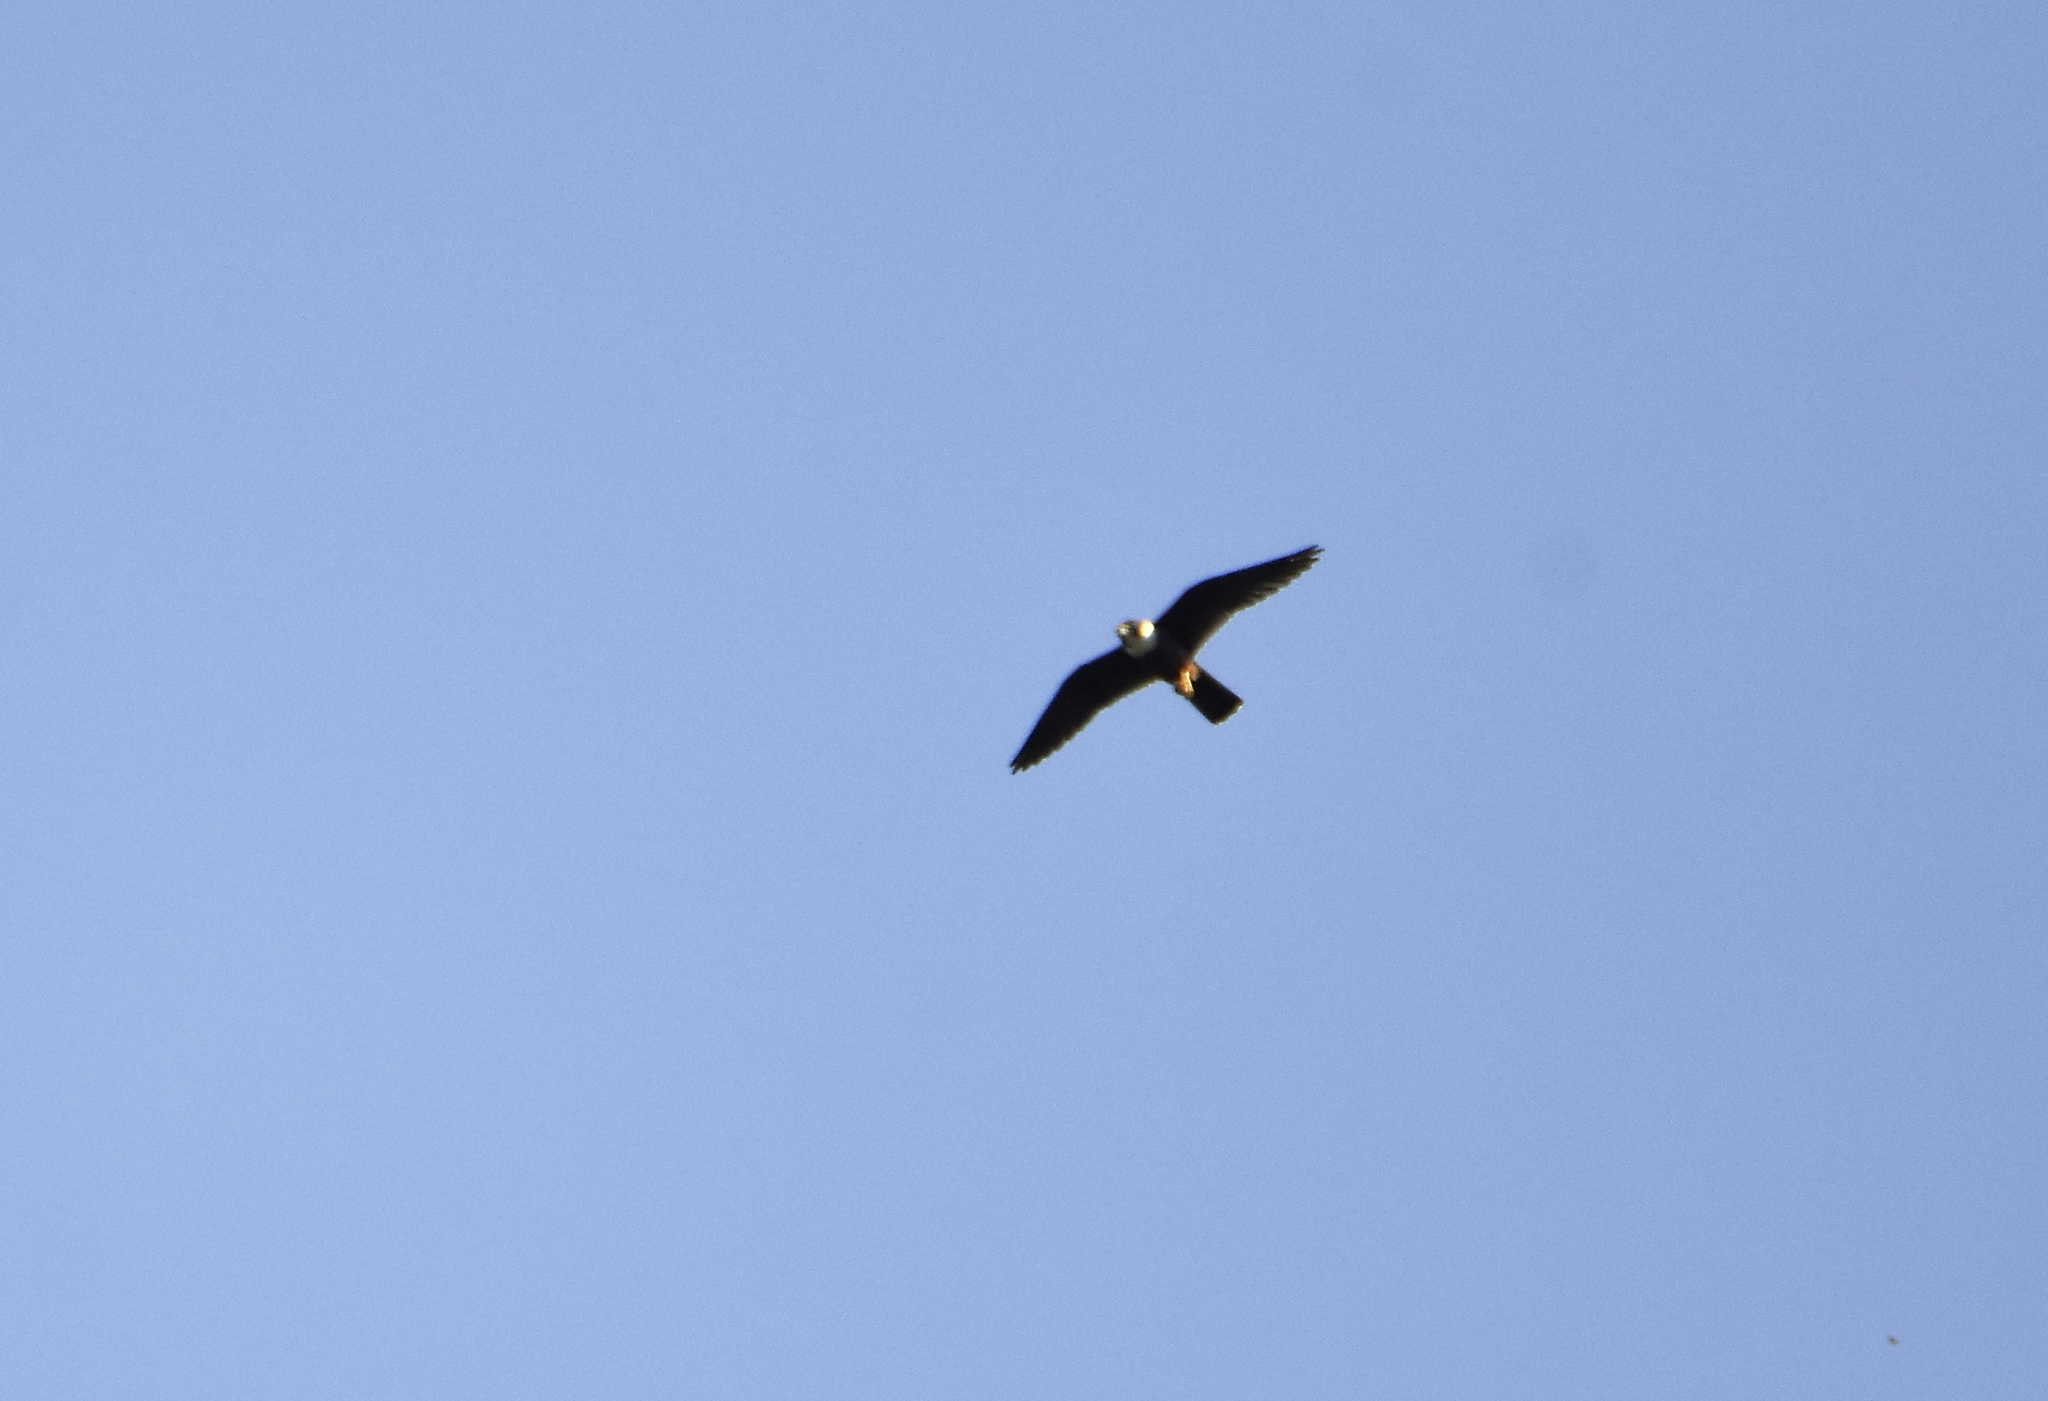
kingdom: Animalia
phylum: Chordata
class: Aves
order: Falconiformes
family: Falconidae
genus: Falco
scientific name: Falco rufigularis
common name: Bat falcon
